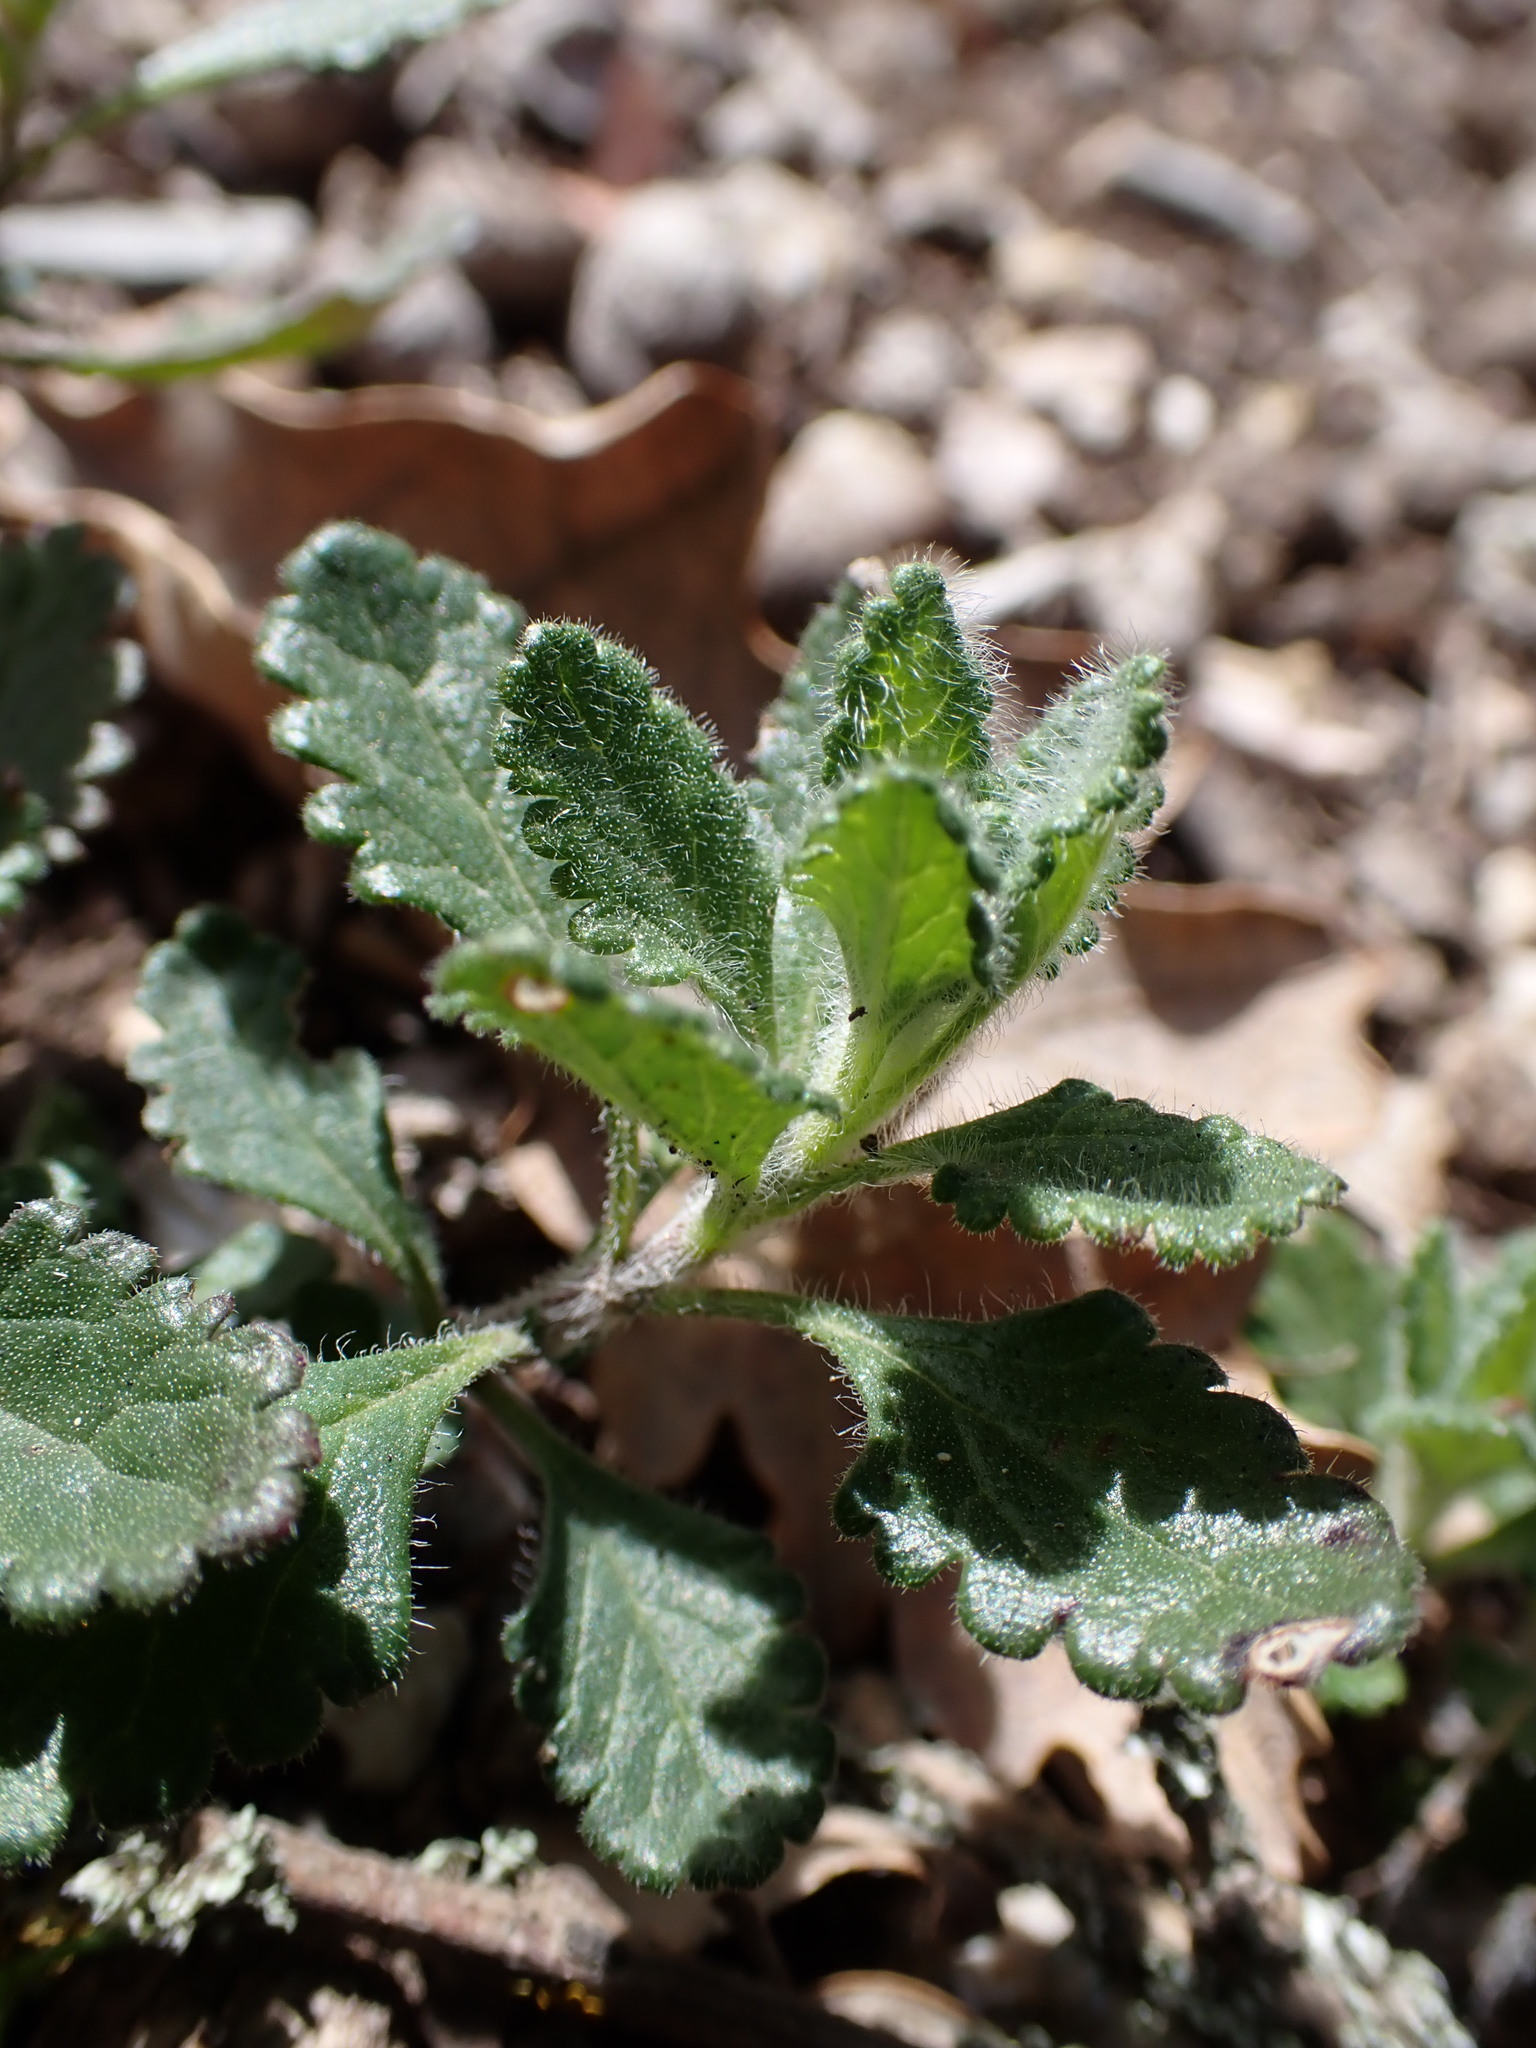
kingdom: Plantae
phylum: Tracheophyta
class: Magnoliopsida
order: Lamiales
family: Lamiaceae
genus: Teucrium
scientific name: Teucrium chamaedrys
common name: Wall germander
